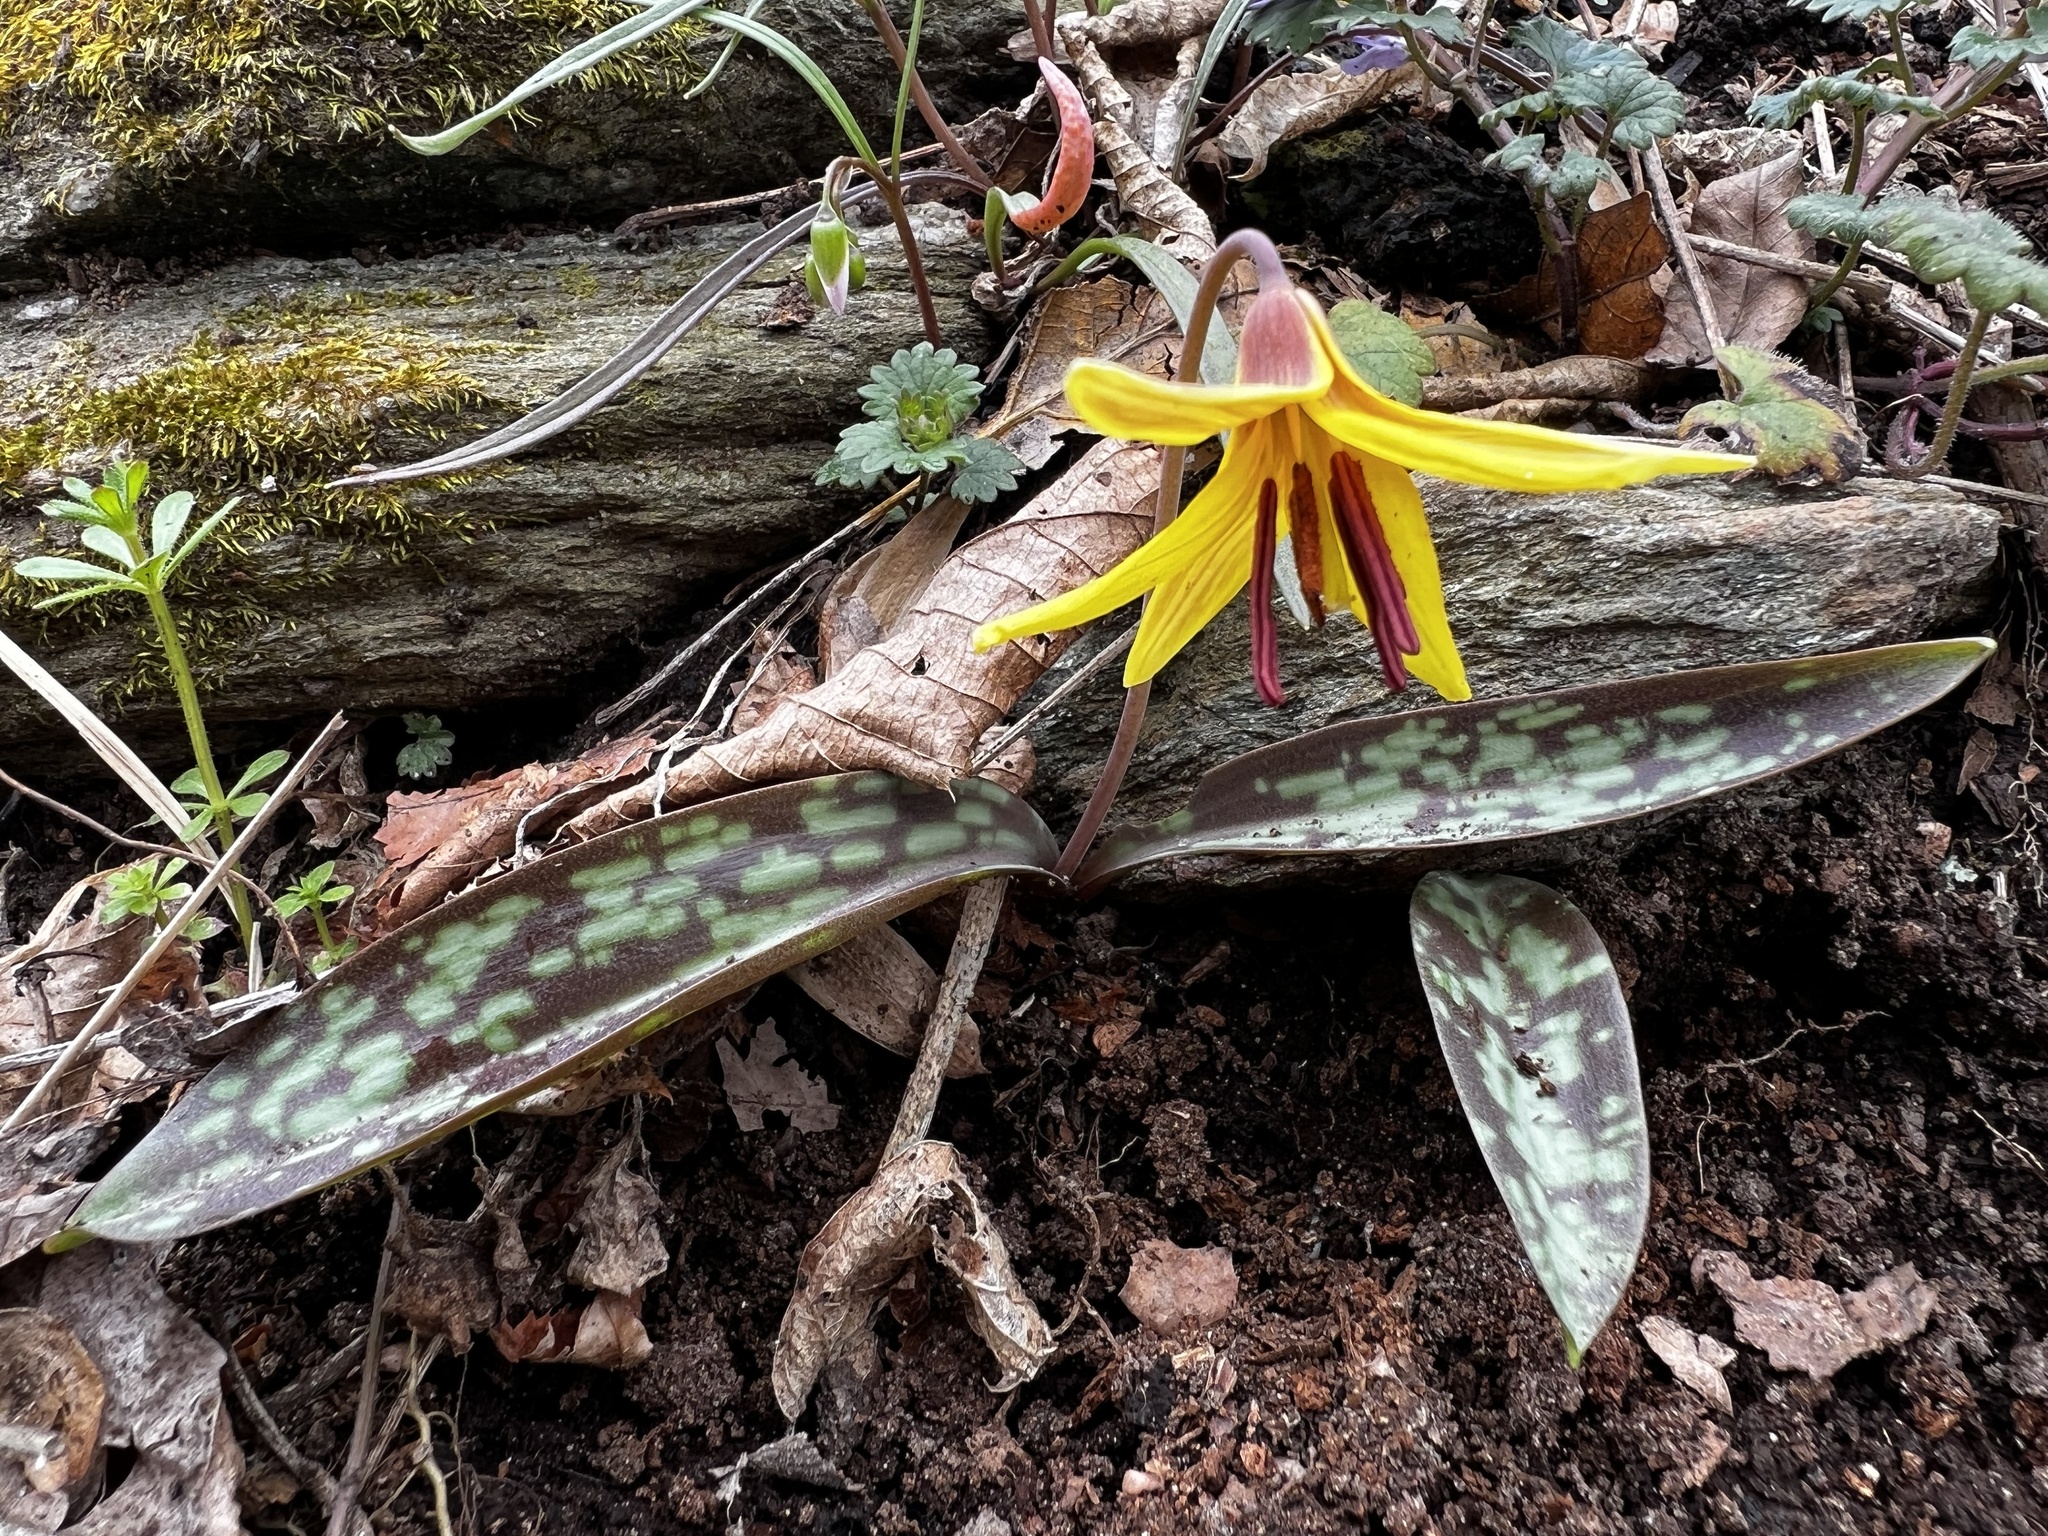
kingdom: Plantae
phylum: Tracheophyta
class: Liliopsida
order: Liliales
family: Liliaceae
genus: Erythronium
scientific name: Erythronium americanum
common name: Yellow adder's-tongue
